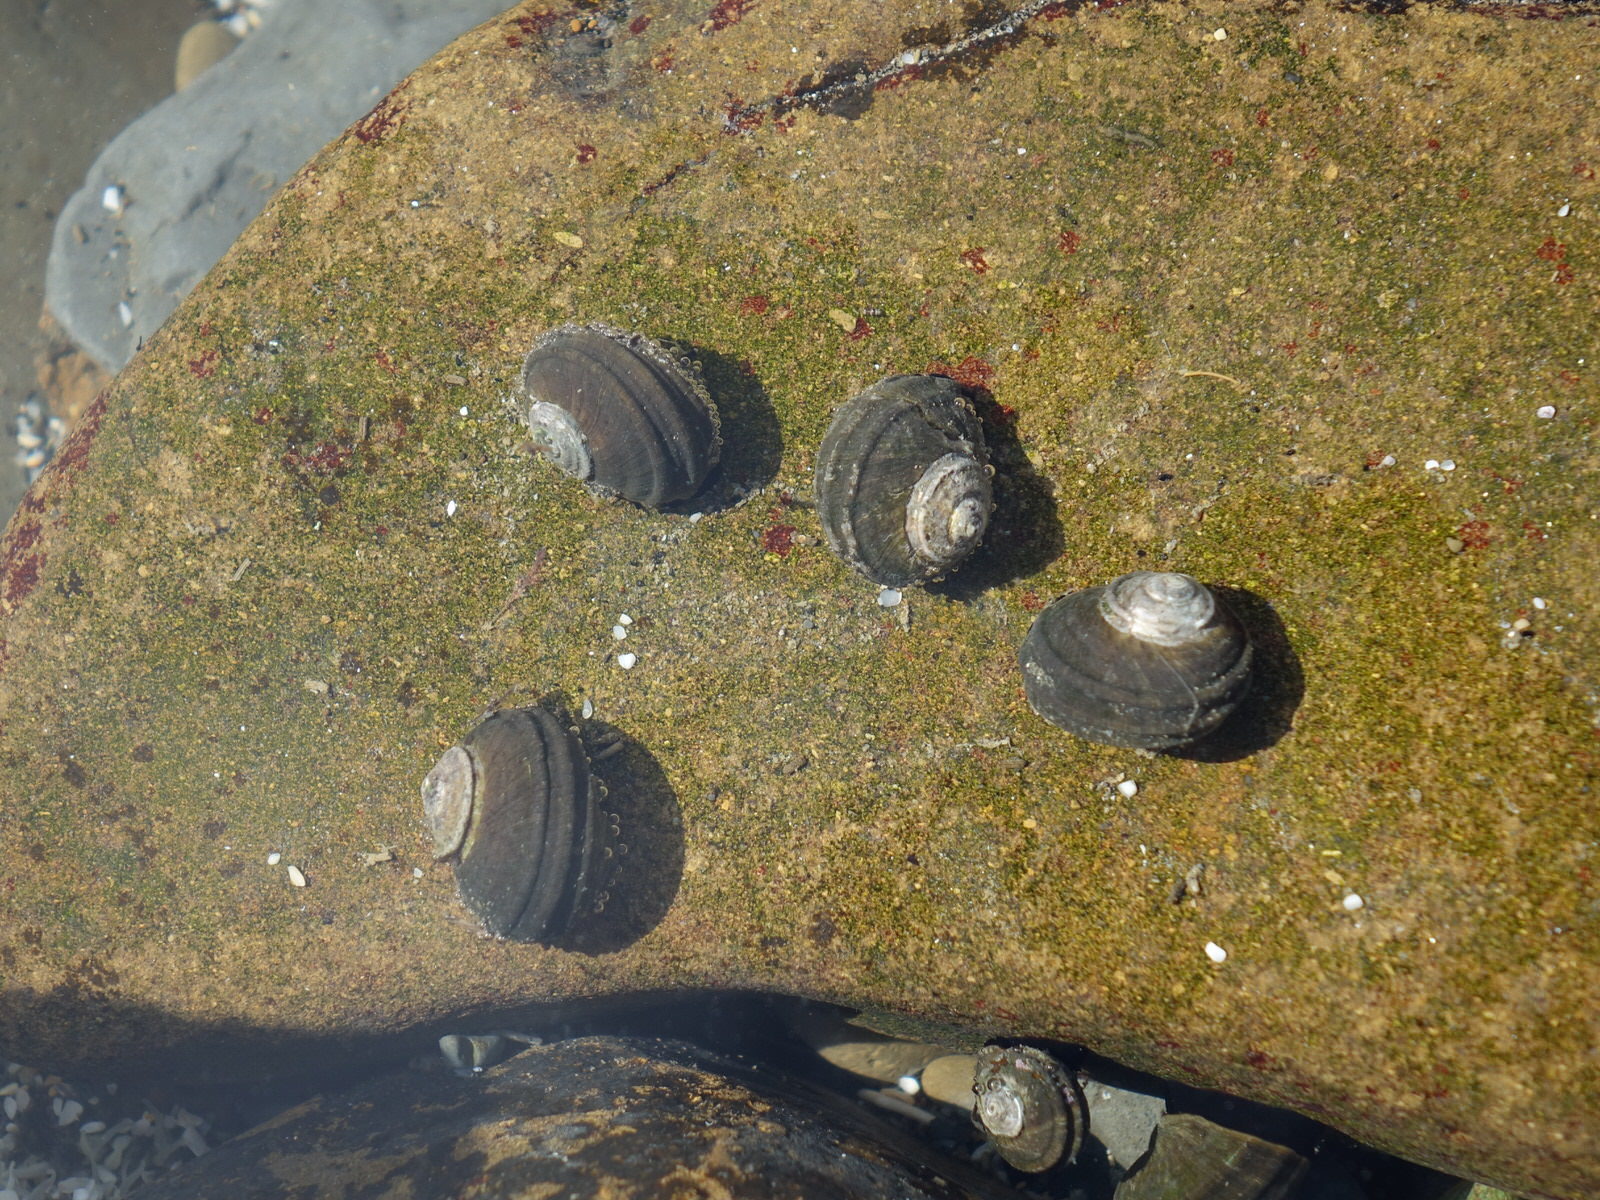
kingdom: Animalia
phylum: Mollusca
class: Gastropoda
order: Trochida
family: Turbinidae
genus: Lunella
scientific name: Lunella smaragda
